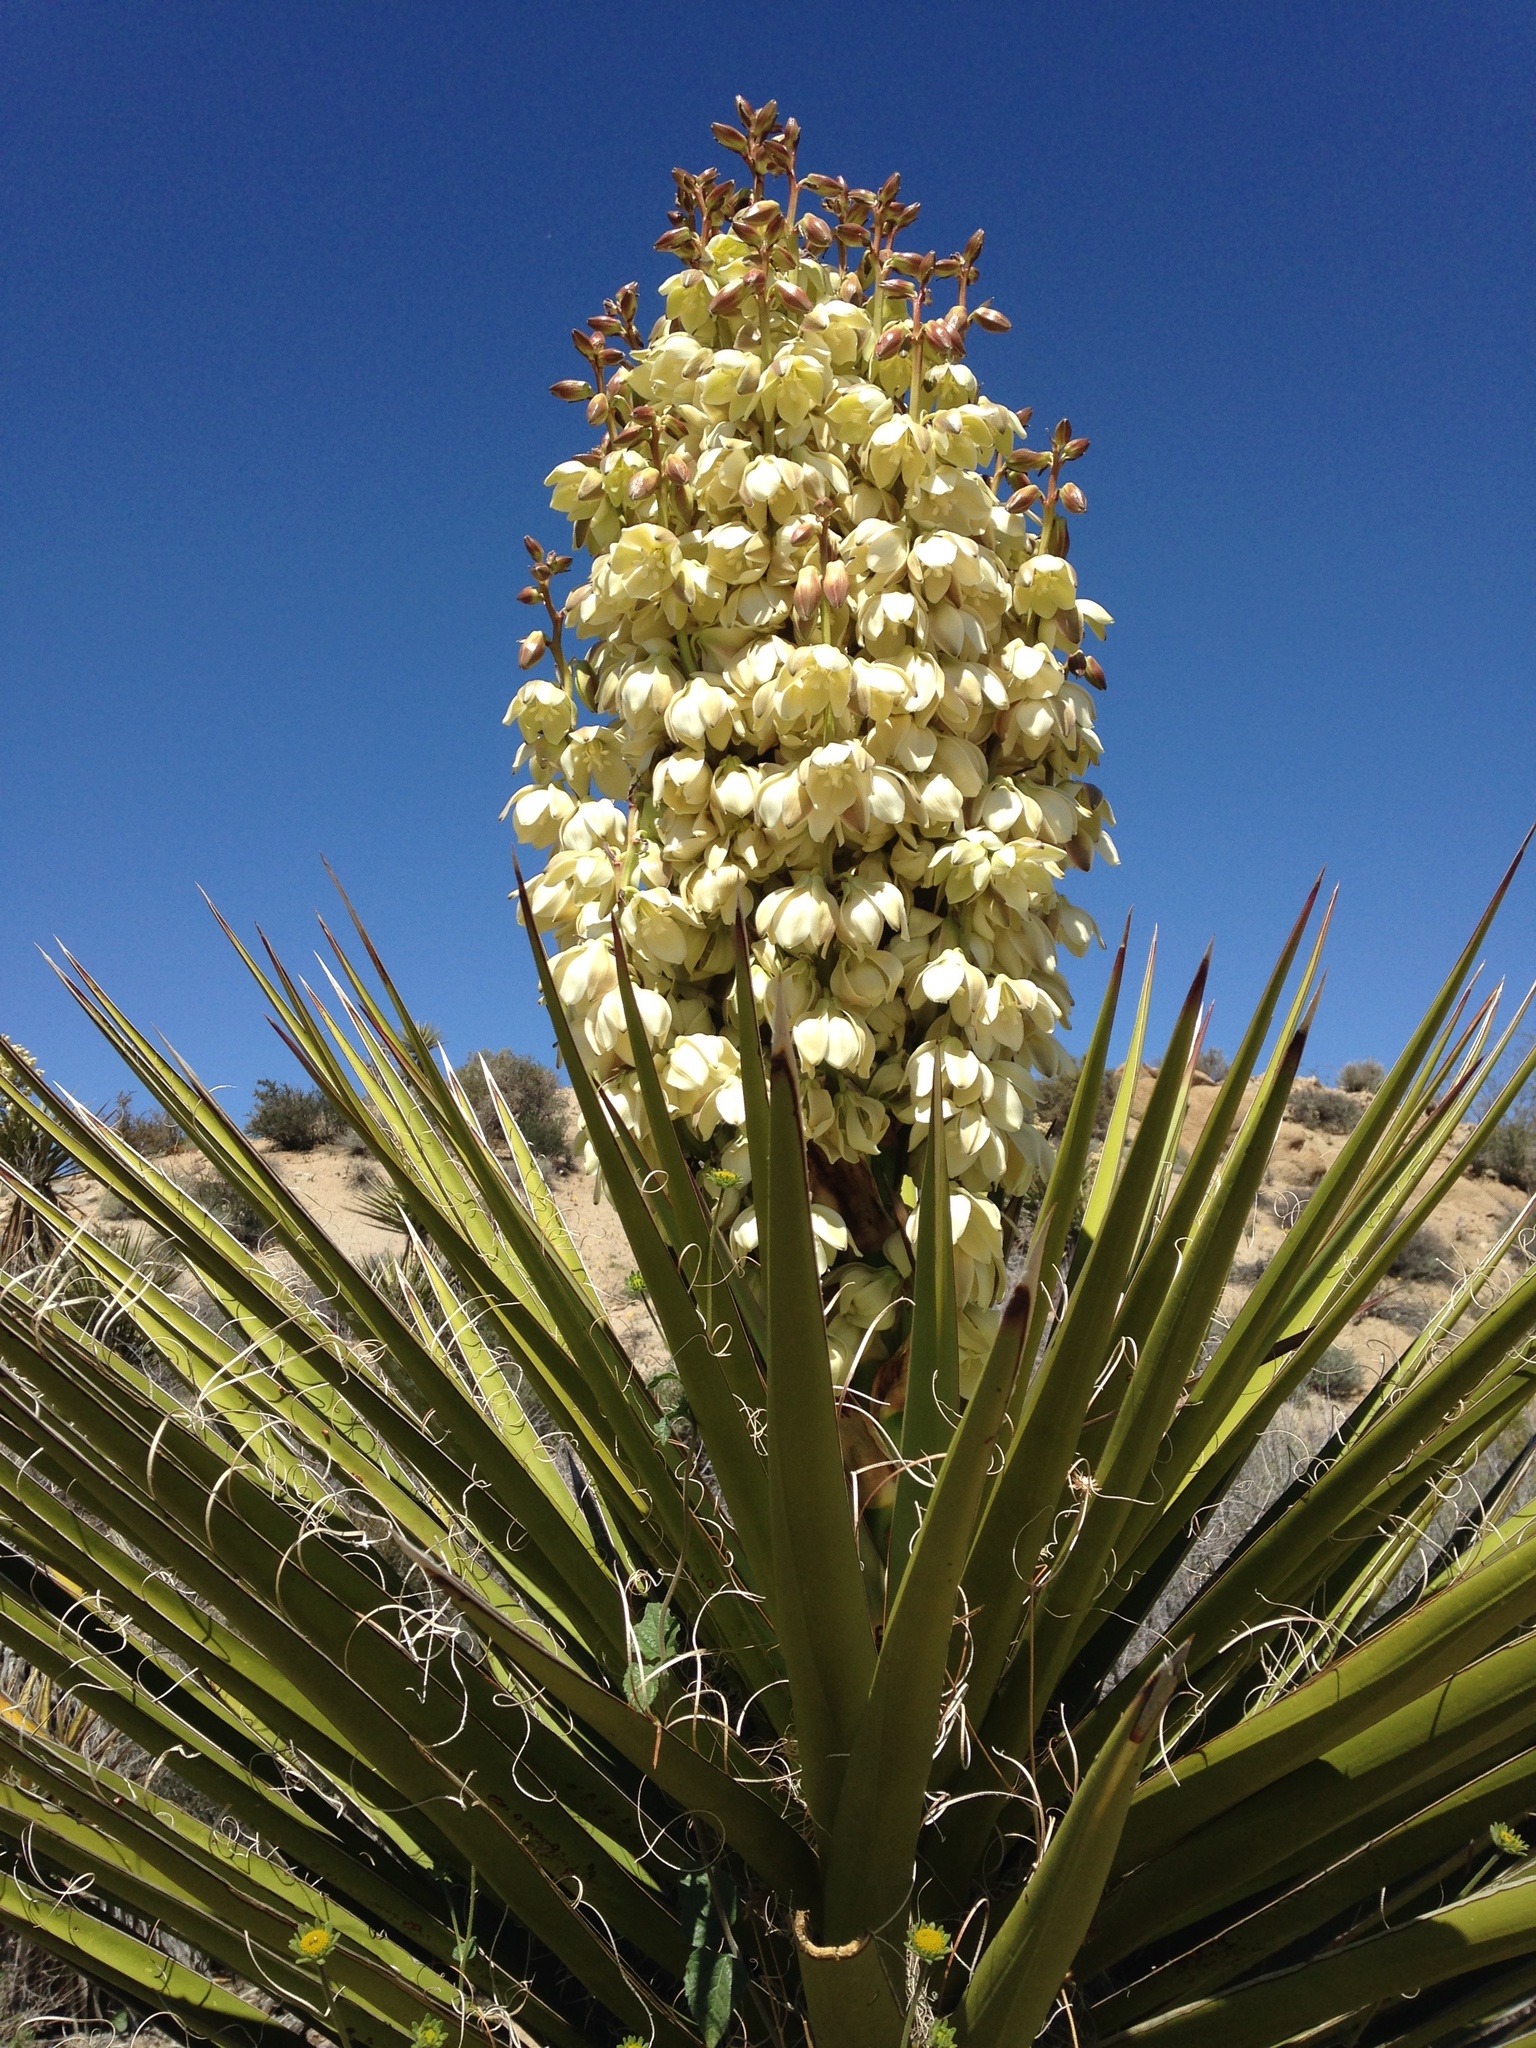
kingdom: Plantae
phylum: Tracheophyta
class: Liliopsida
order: Asparagales
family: Asparagaceae
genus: Yucca
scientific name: Yucca schidigera
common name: Mojave yucca
